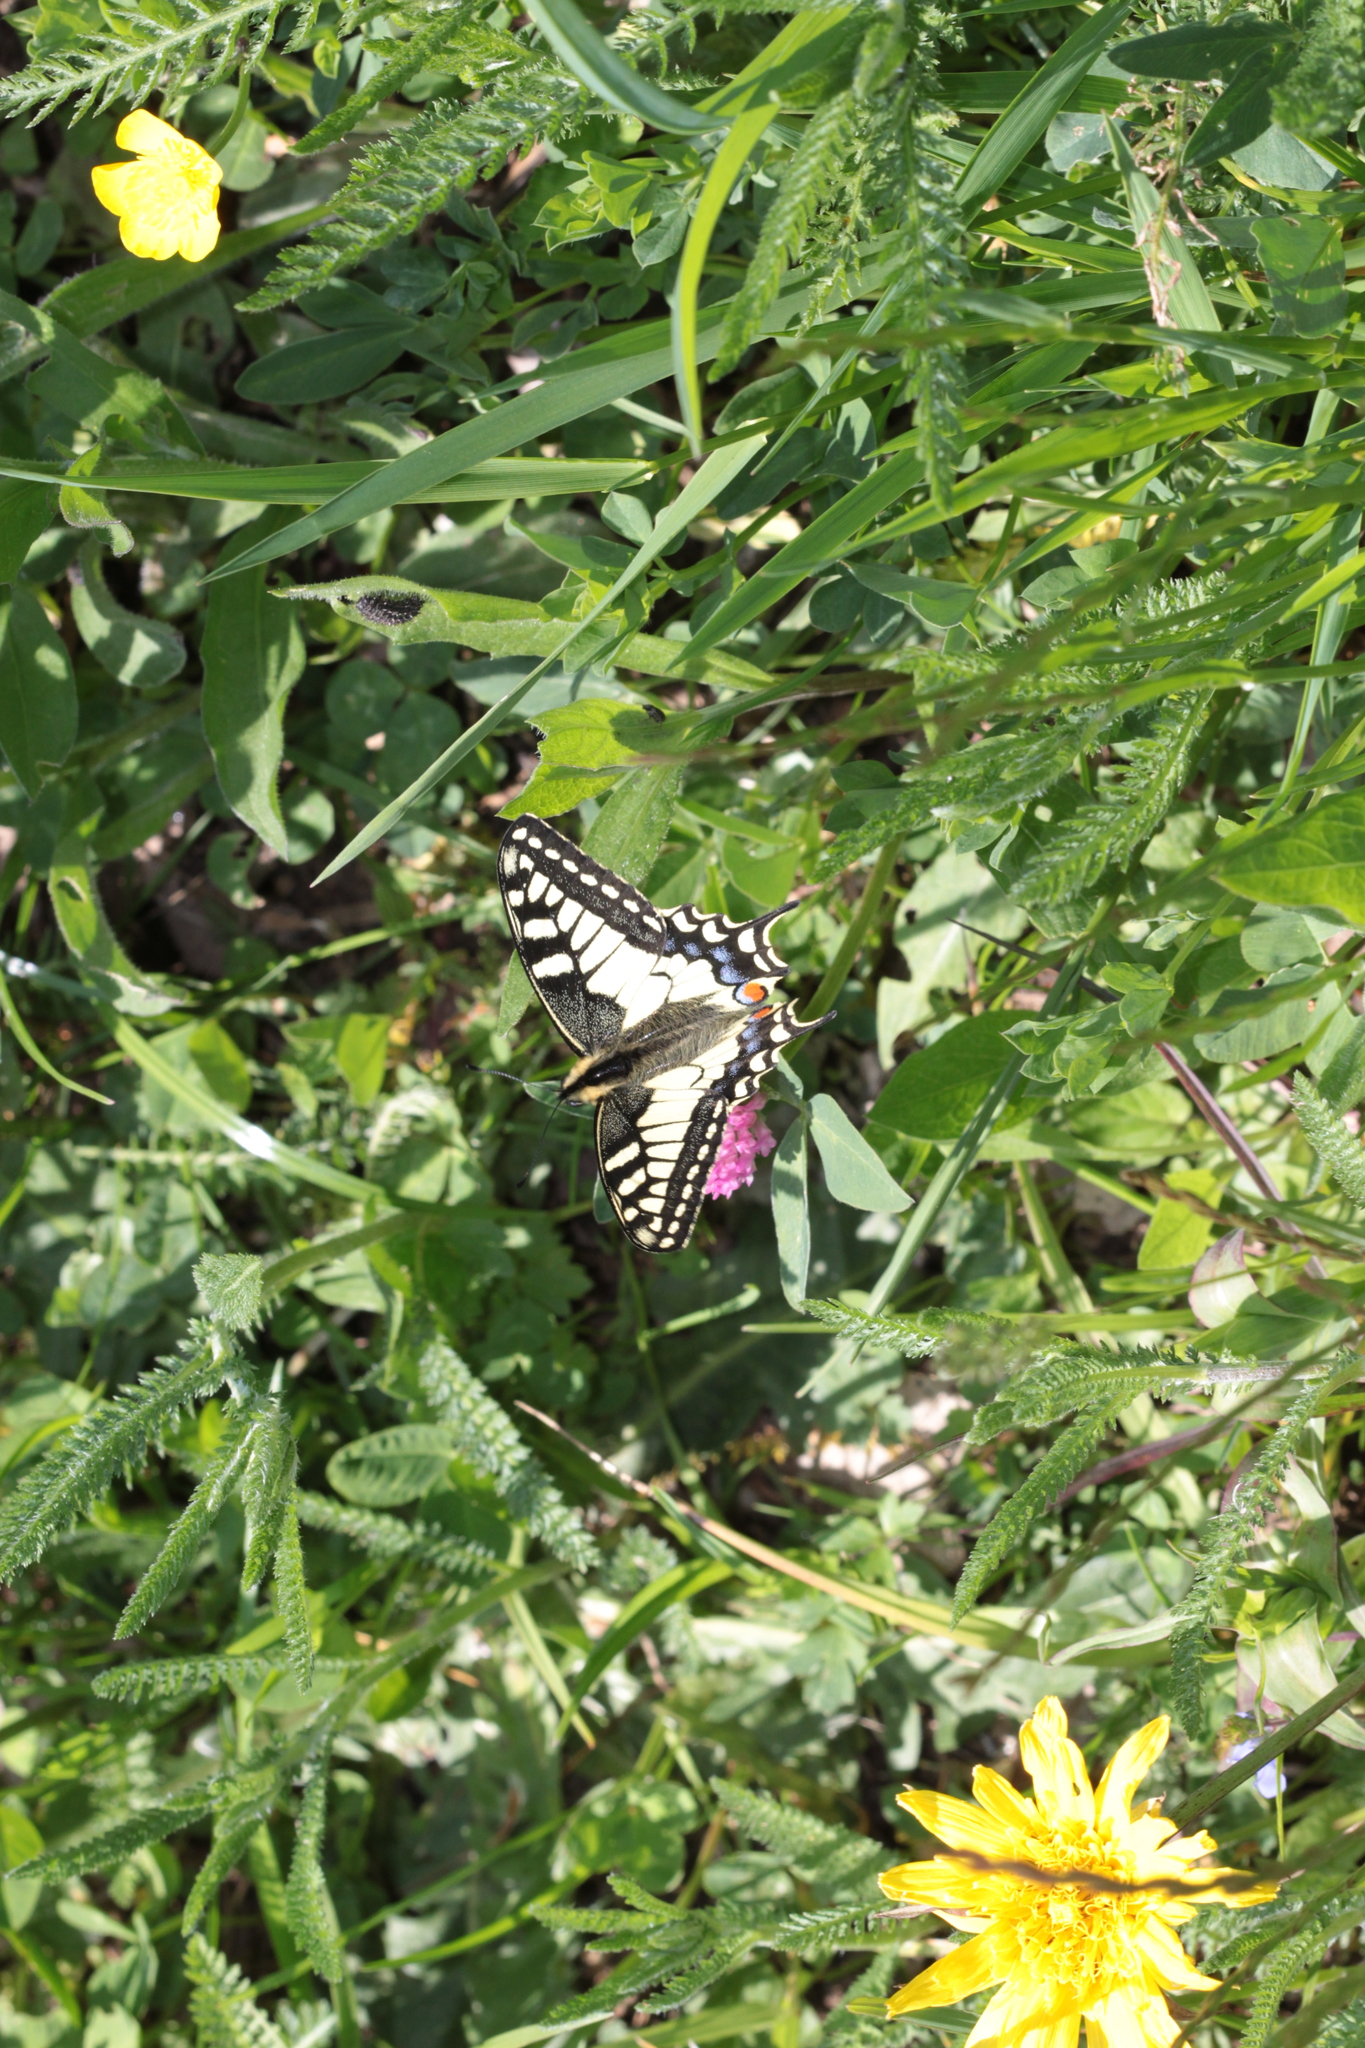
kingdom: Animalia
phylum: Arthropoda
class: Insecta
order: Lepidoptera
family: Papilionidae
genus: Papilio
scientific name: Papilio machaon
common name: Swallowtail
